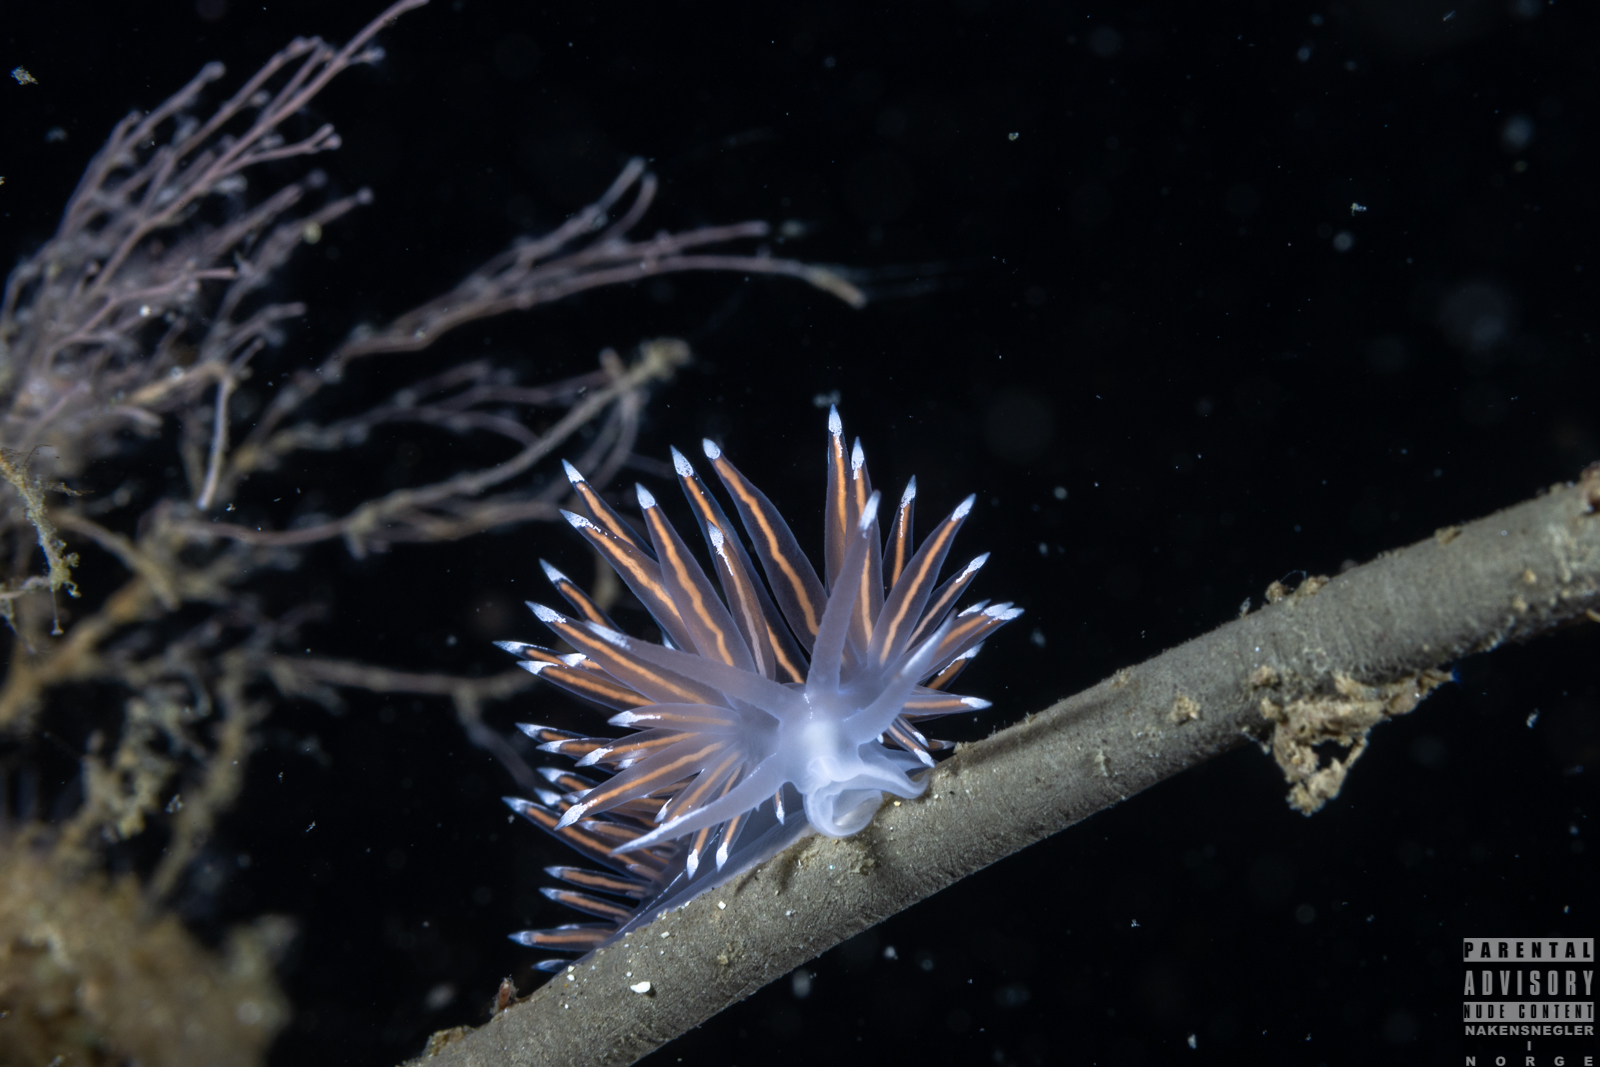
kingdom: Animalia
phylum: Mollusca
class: Gastropoda
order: Nudibranchia
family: Coryphellidae
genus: Coryphella
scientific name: Coryphella lineata
